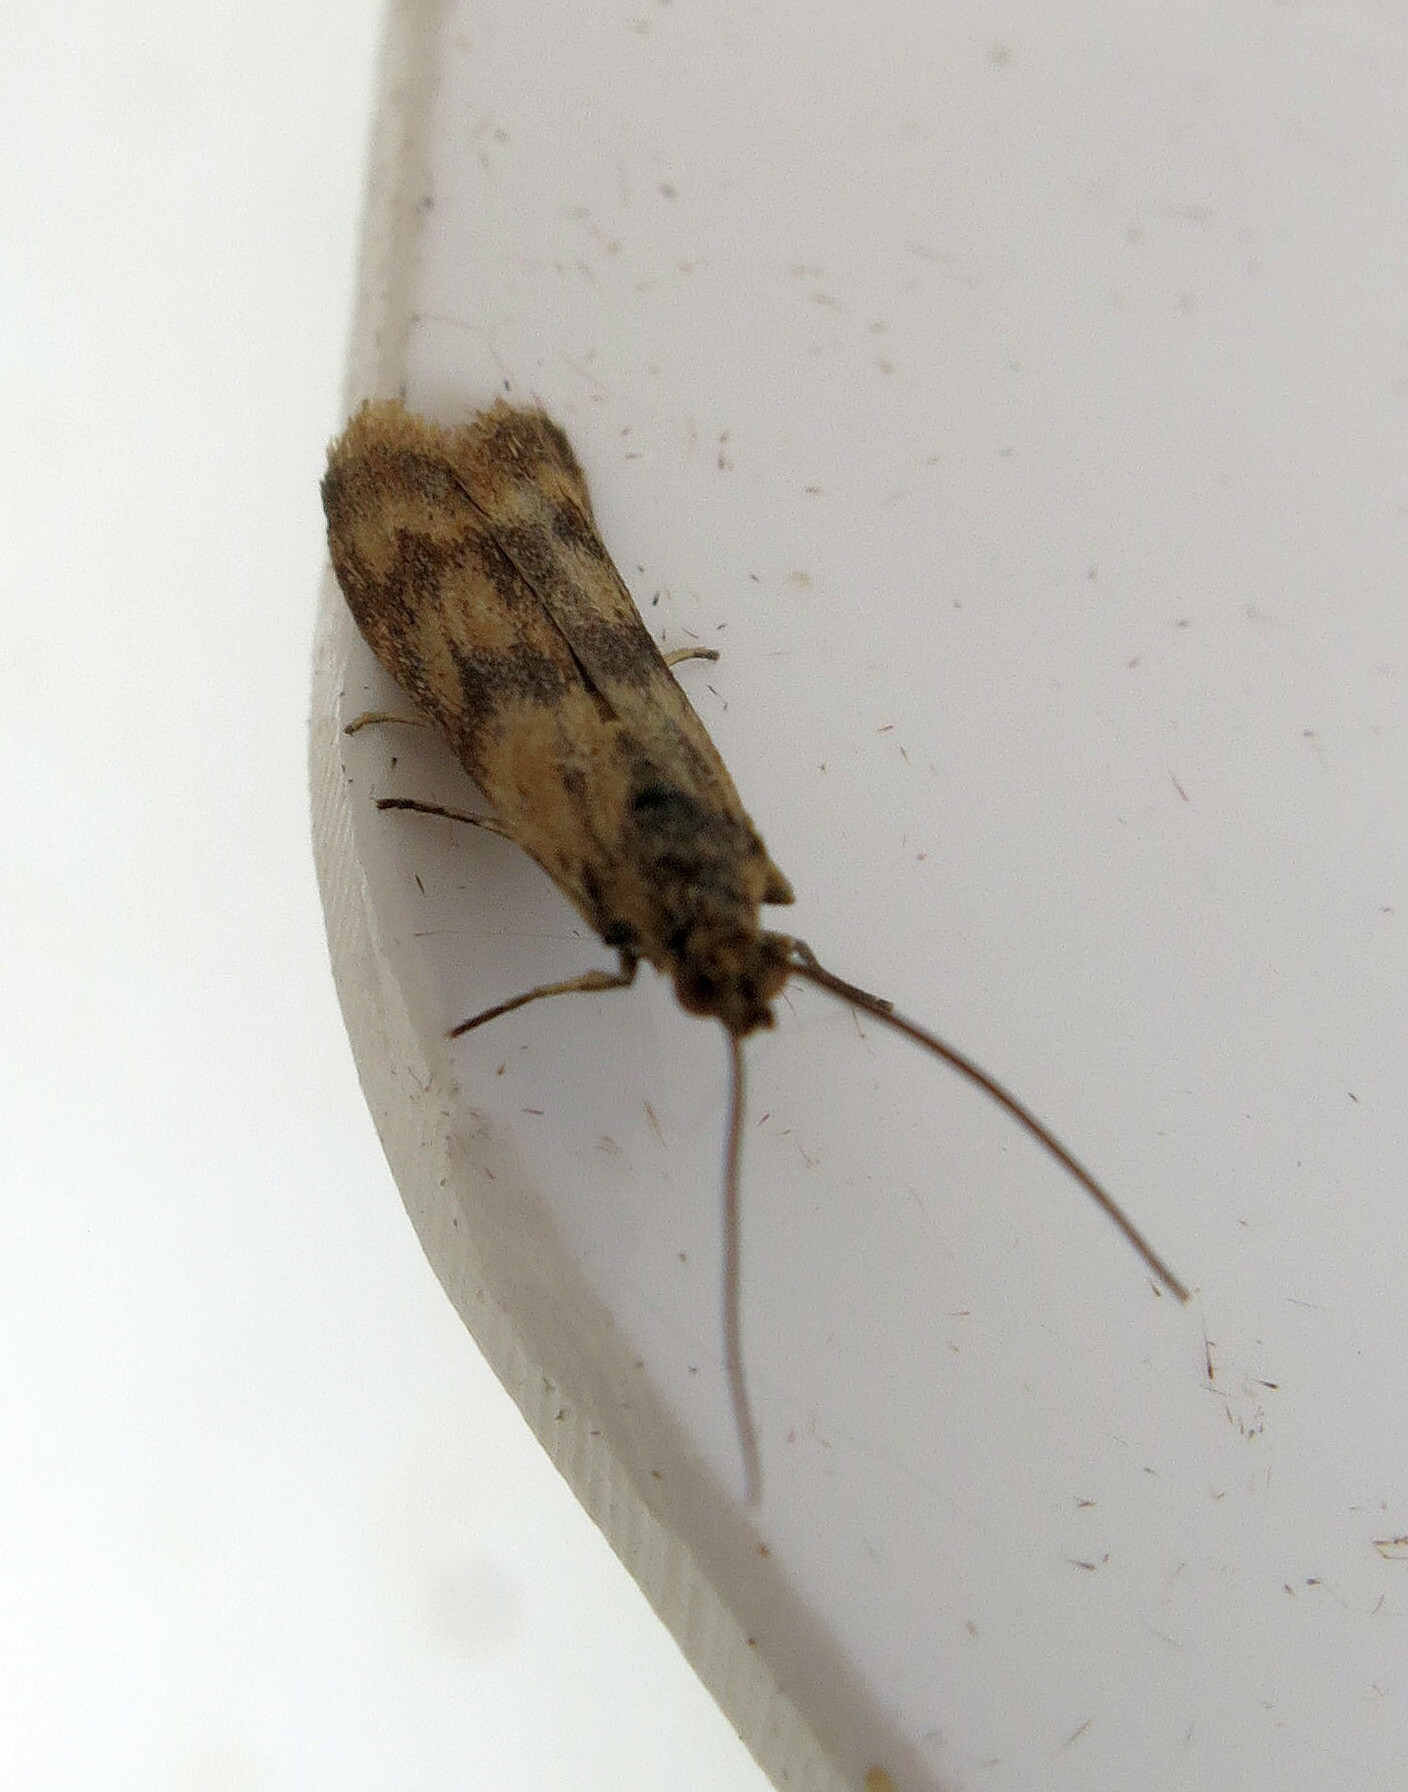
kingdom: Animalia
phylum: Arthropoda
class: Insecta
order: Lepidoptera
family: Pyralidae
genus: Homoeosoma
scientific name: Homoeosoma sinuella
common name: Twin-barred knot-horn
